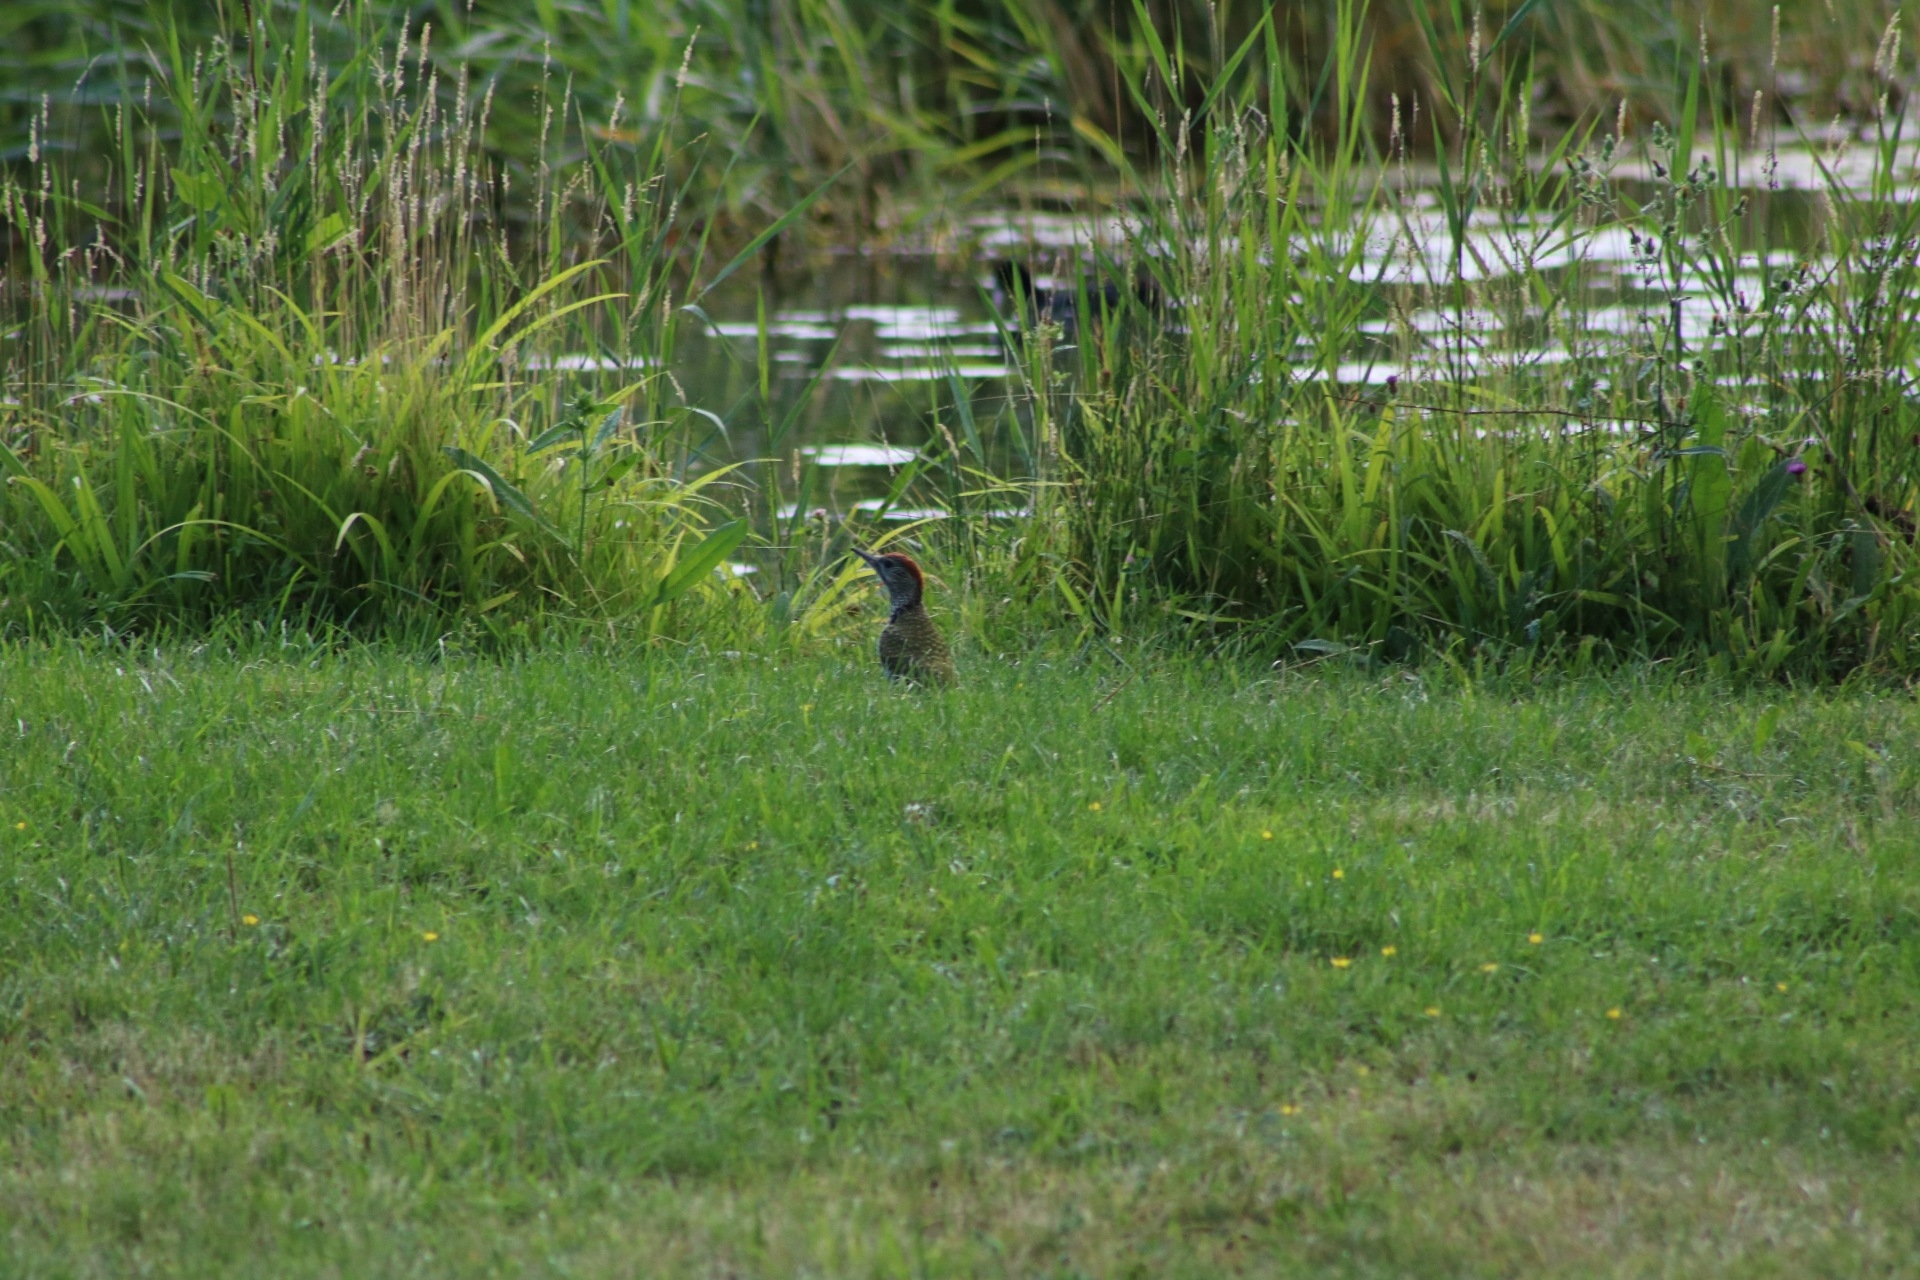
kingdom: Animalia
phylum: Chordata
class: Aves
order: Piciformes
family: Picidae
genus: Picus
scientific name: Picus viridis
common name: European green woodpecker
